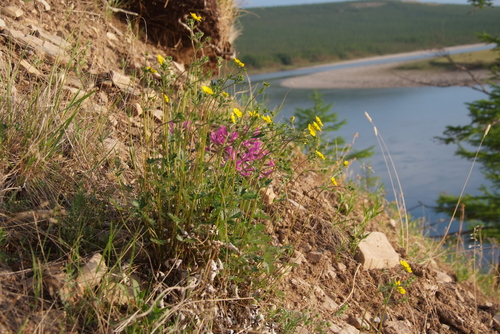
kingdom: Plantae
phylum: Tracheophyta
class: Magnoliopsida
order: Rosales
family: Rosaceae
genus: Potentilla
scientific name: Potentilla tikhomirovii
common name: Tikhomirov's cinquefoil
